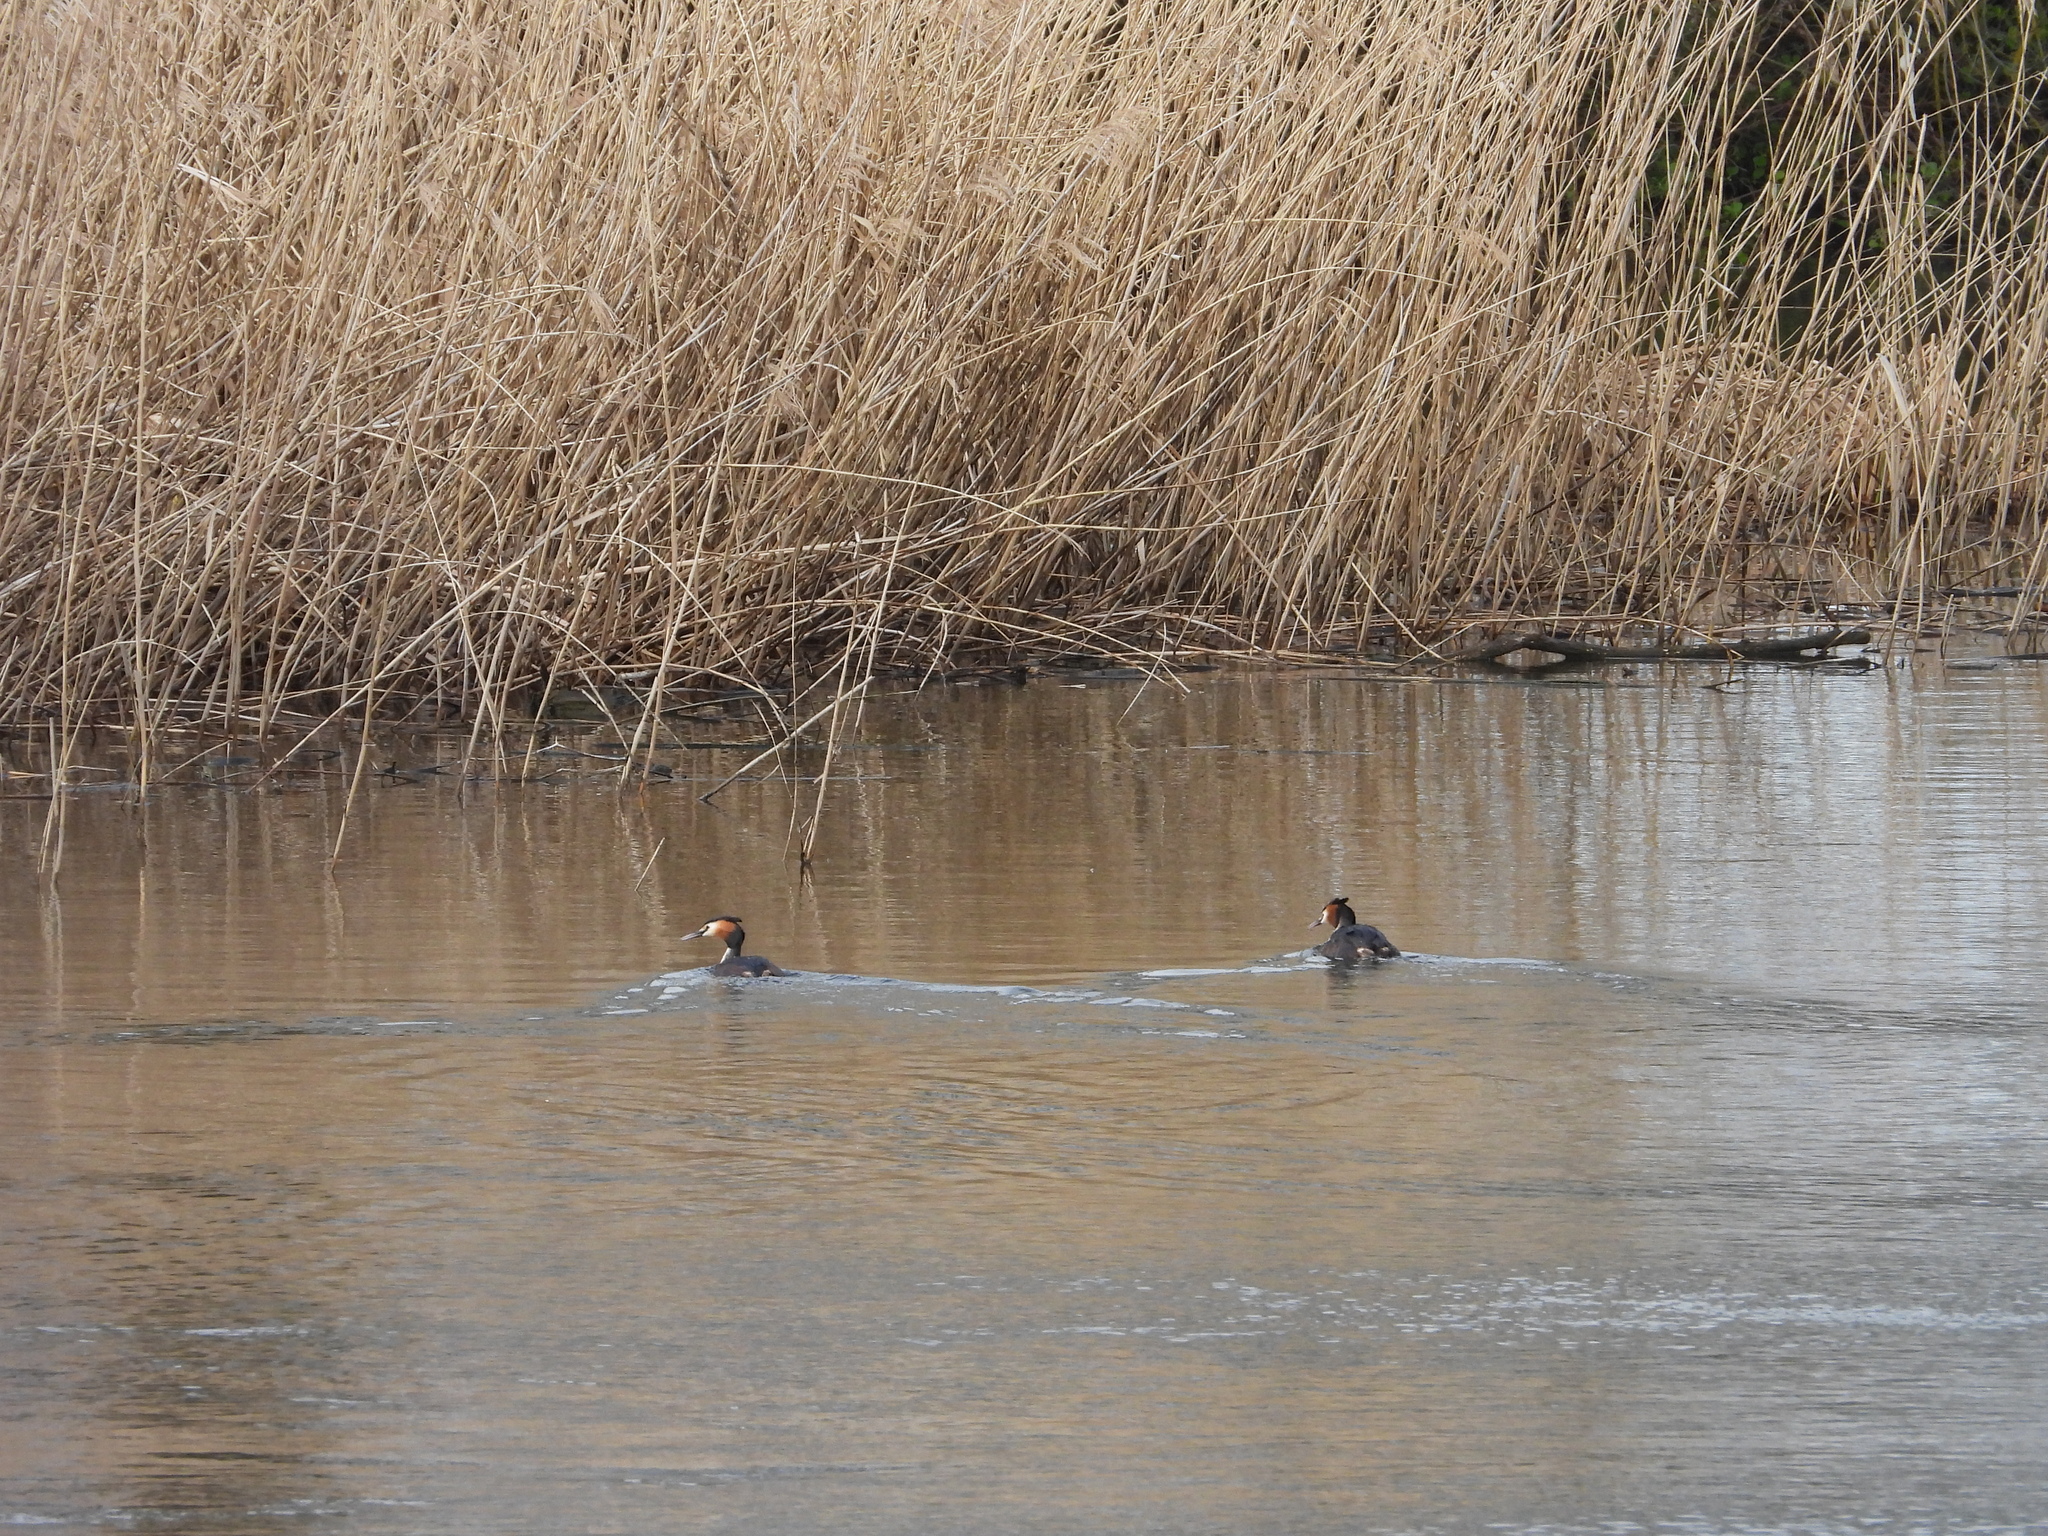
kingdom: Animalia
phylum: Chordata
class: Aves
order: Podicipediformes
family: Podicipedidae
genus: Podiceps
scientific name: Podiceps cristatus
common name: Great crested grebe
